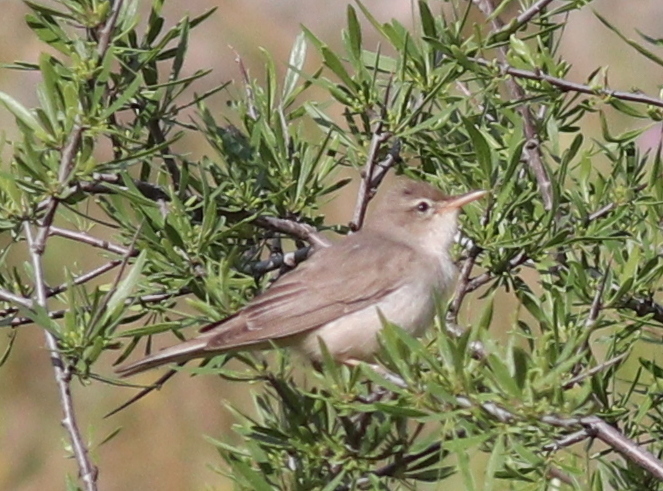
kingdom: Animalia
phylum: Chordata
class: Aves
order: Passeriformes
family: Acrocephalidae
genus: Hippolais
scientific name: Hippolais languida
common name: Upcher's warbler
